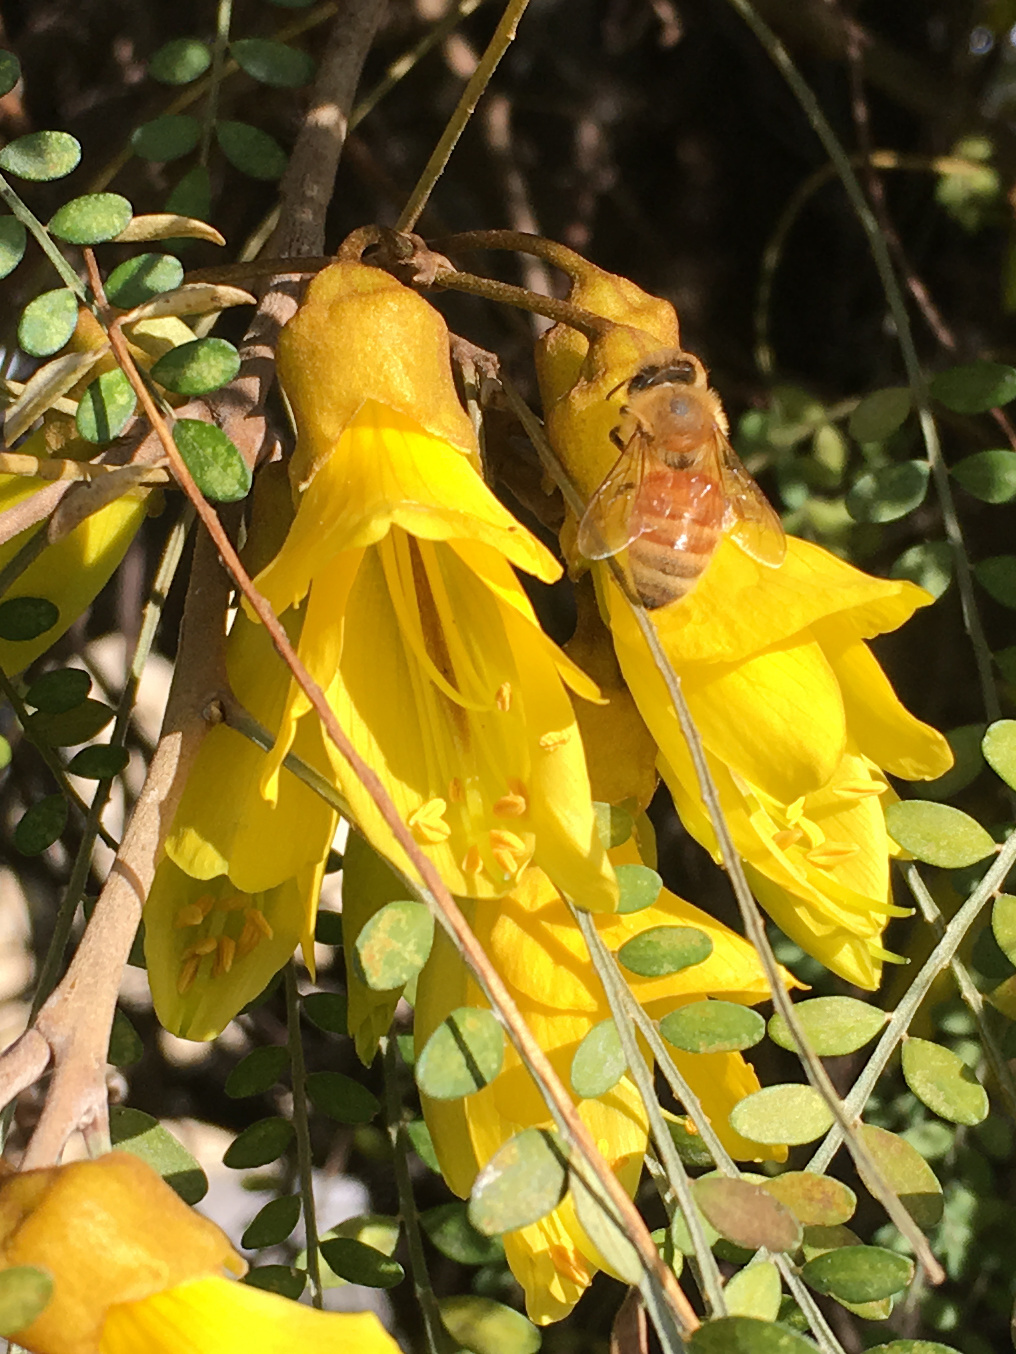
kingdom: Animalia
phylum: Arthropoda
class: Insecta
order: Hymenoptera
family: Apidae
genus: Apis
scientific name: Apis mellifera
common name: Honey bee
